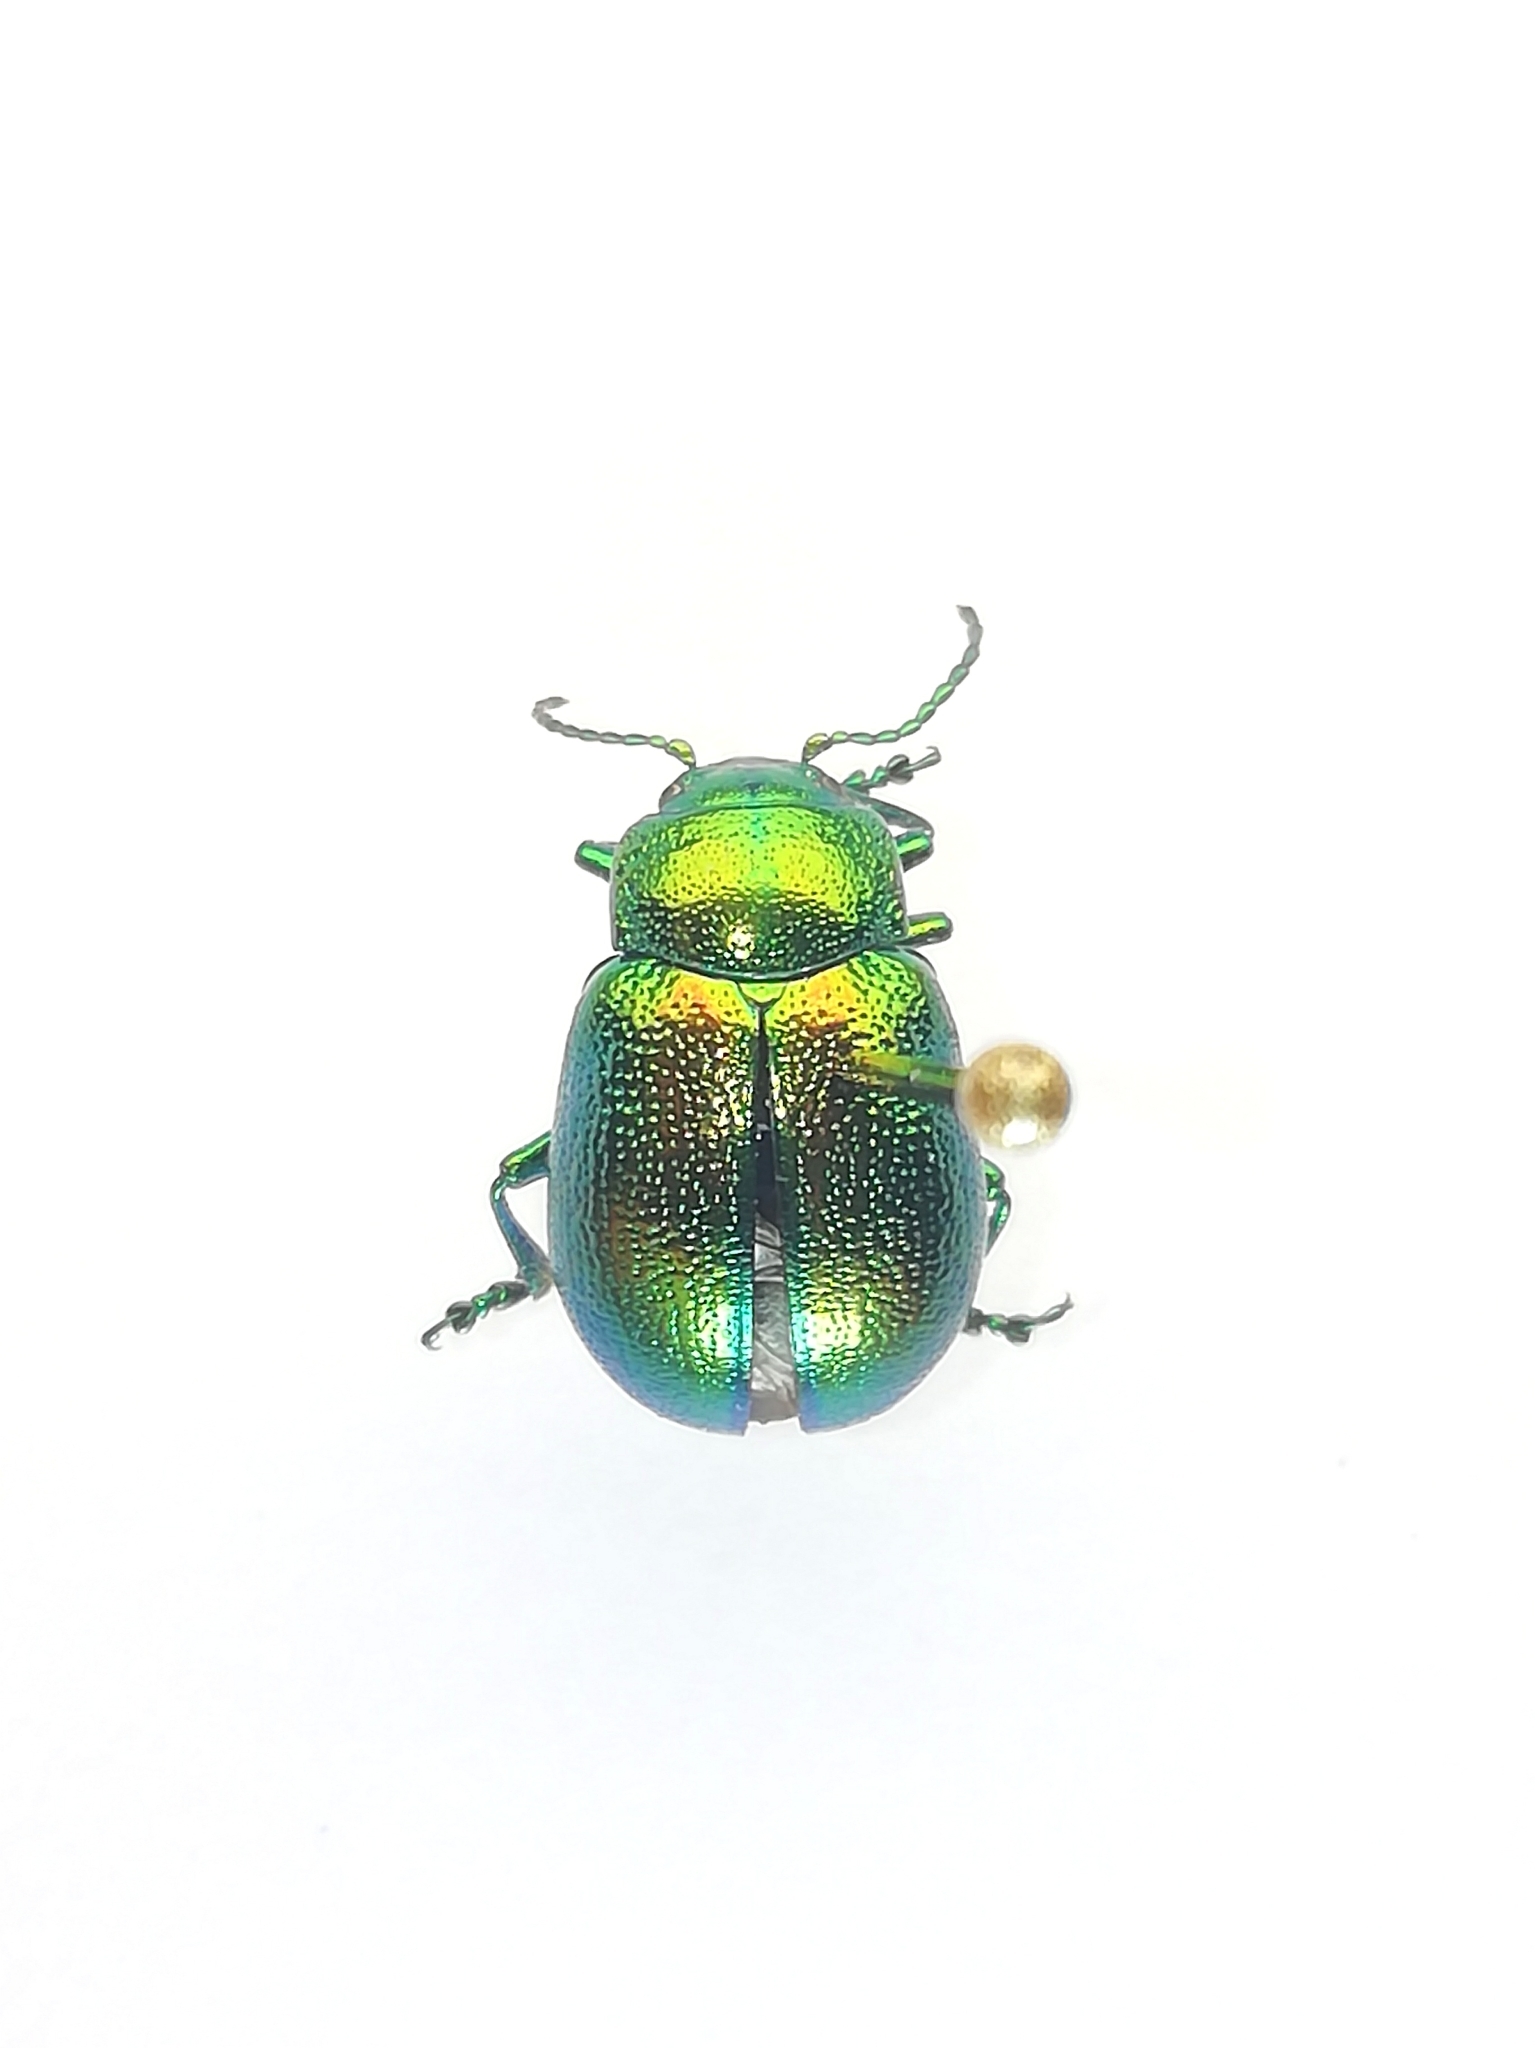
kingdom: Animalia
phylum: Arthropoda
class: Insecta
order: Coleoptera
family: Chrysomelidae
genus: Chrysolina
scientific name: Chrysolina graminis
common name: Tansey beetle
